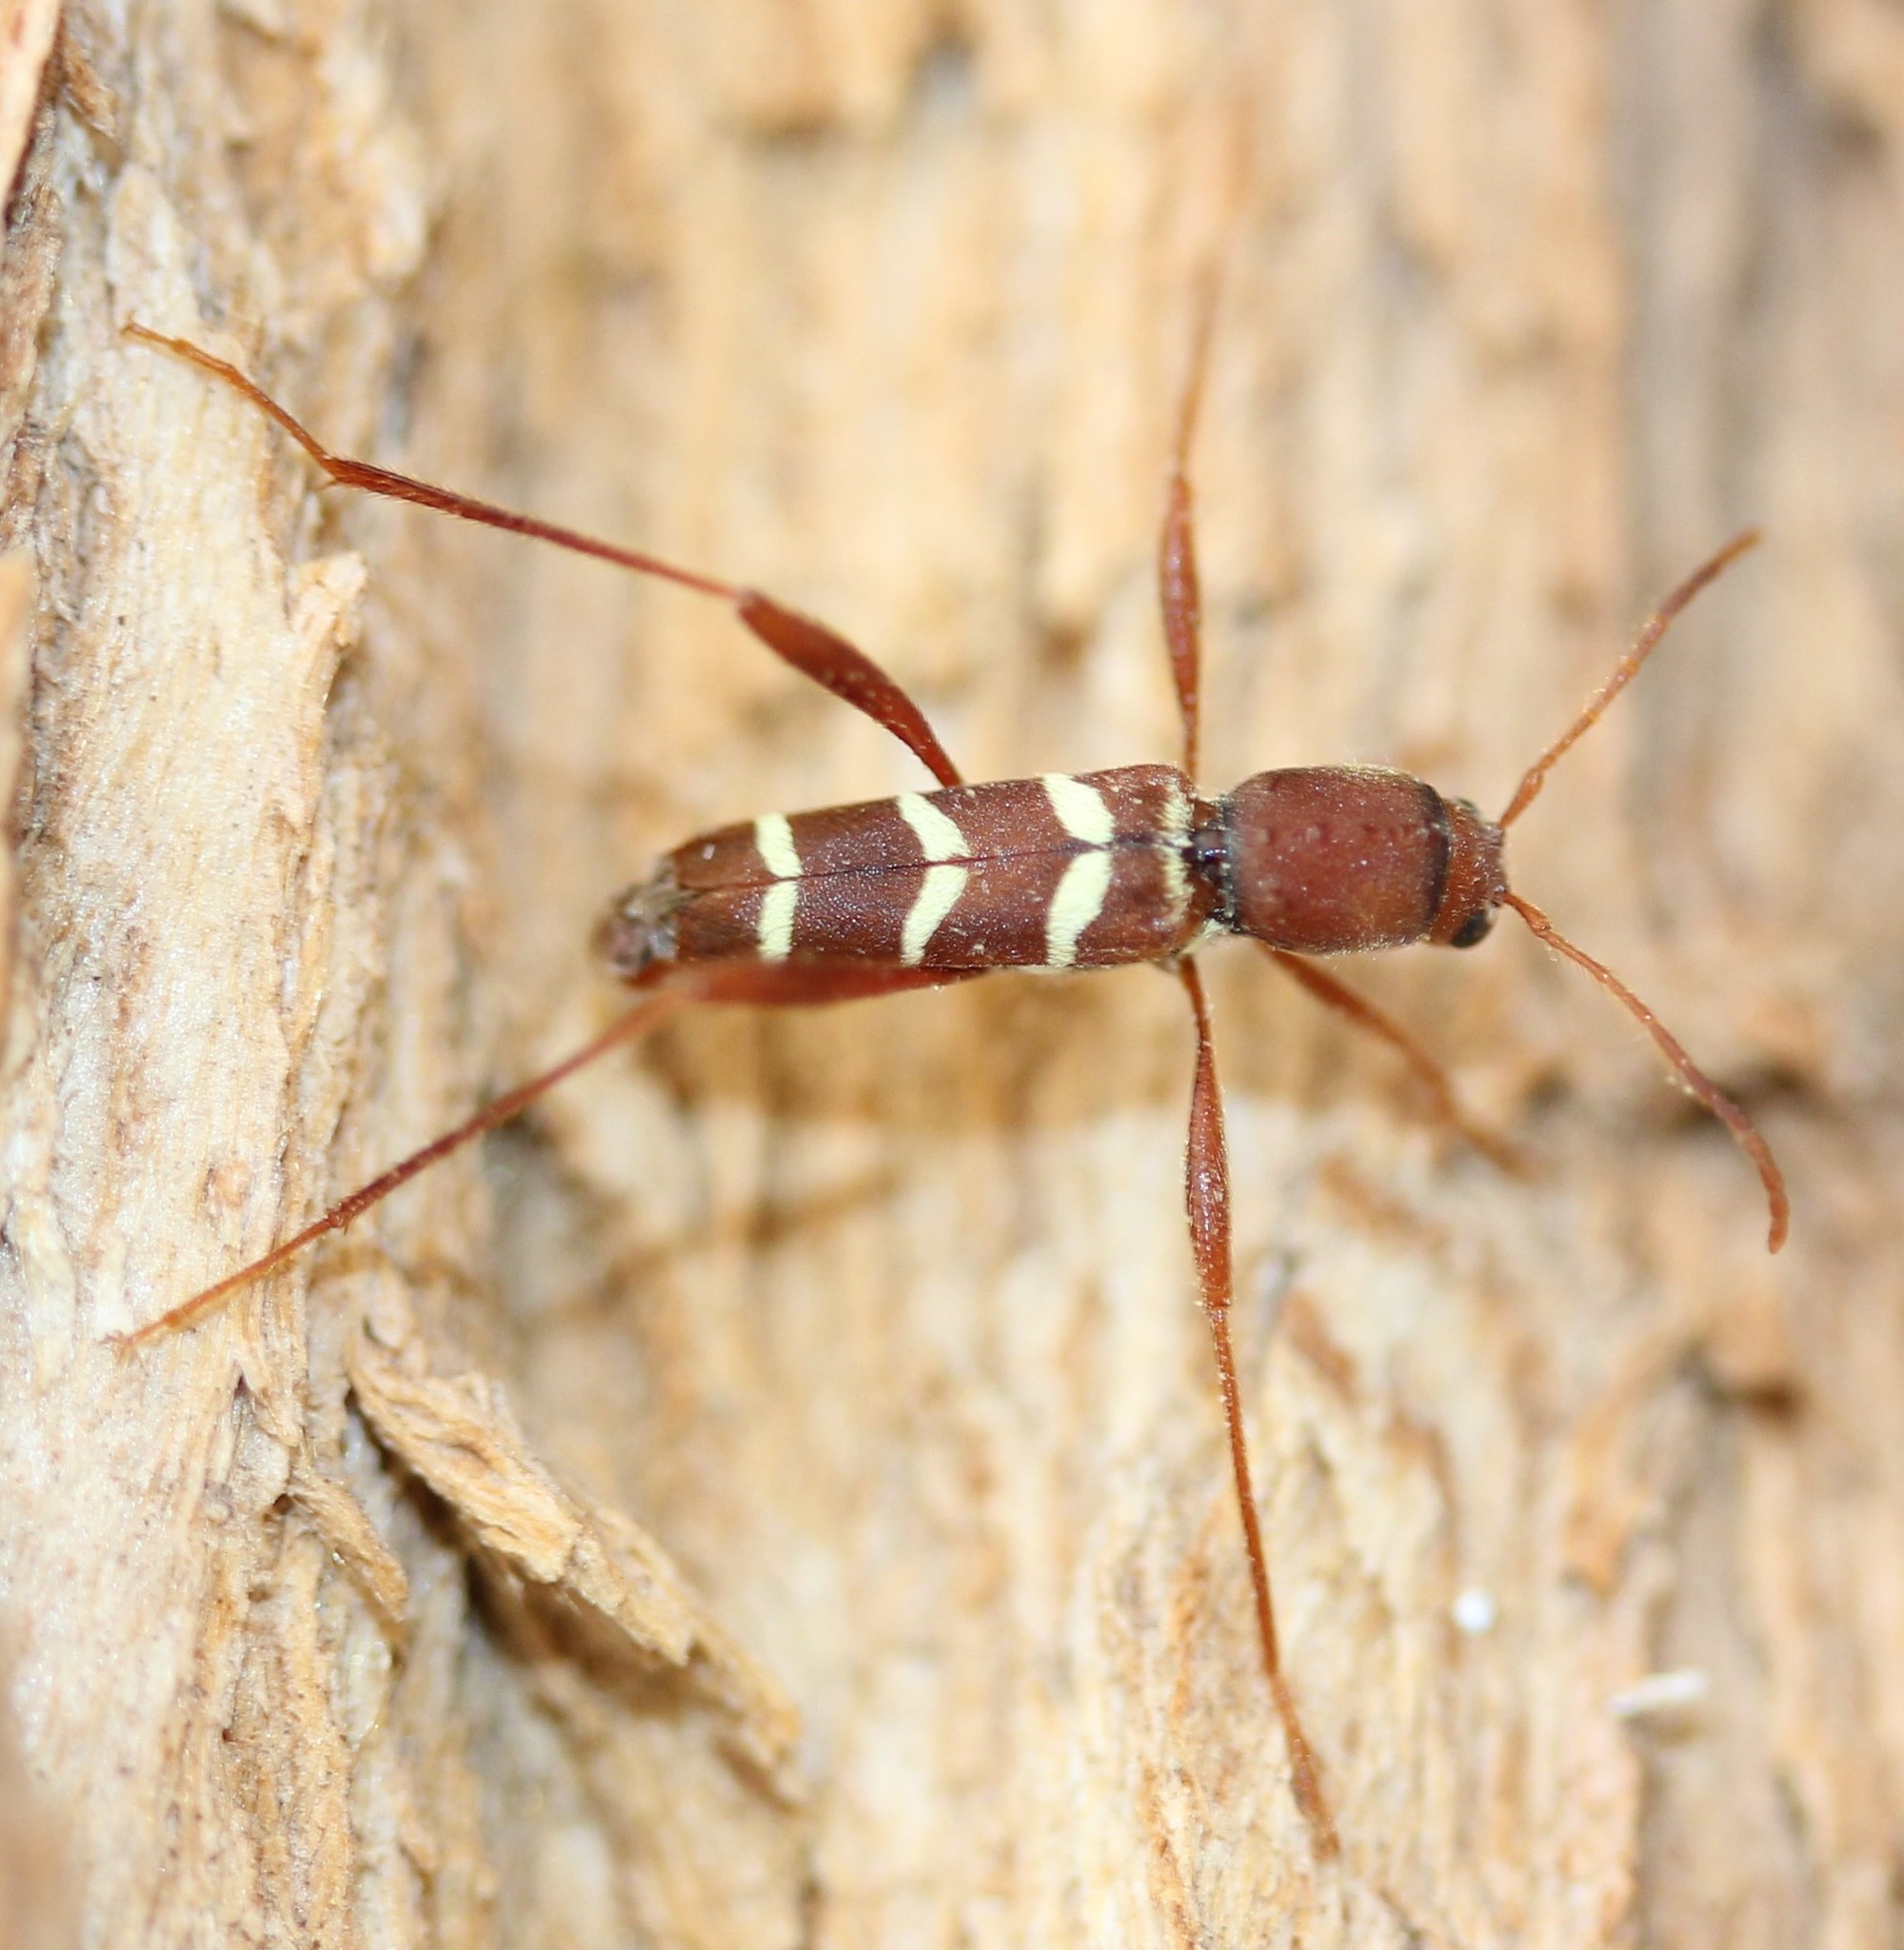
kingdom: Animalia
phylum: Arthropoda
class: Insecta
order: Coleoptera
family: Cerambycidae
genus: Neoclytus
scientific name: Neoclytus acuminatus
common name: Read-headed ash borer
